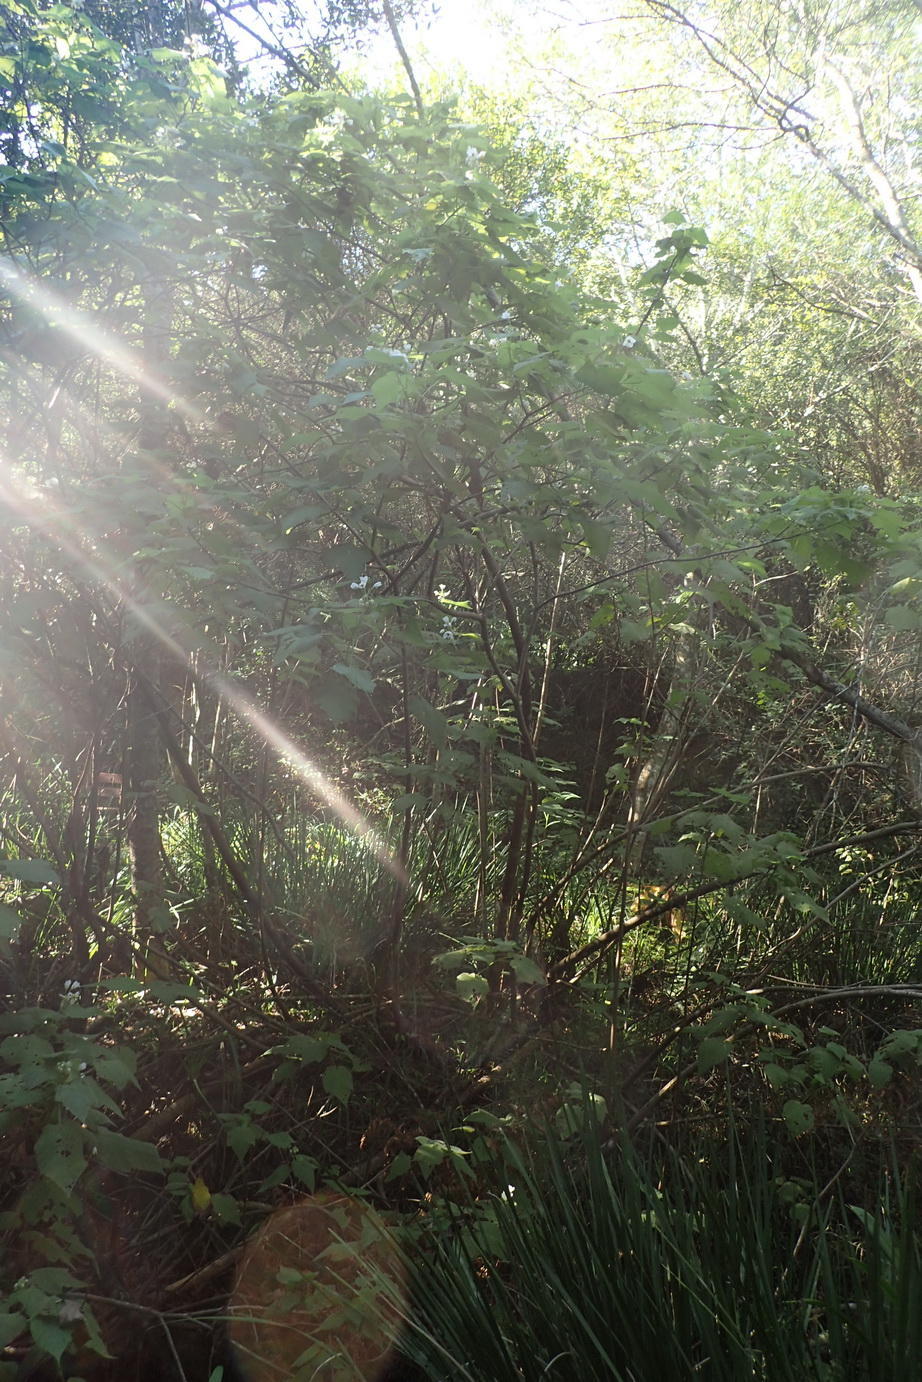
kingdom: Plantae
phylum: Tracheophyta
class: Magnoliopsida
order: Malvales
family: Malvaceae
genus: Sparrmannia
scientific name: Sparrmannia africana
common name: African-hemp
